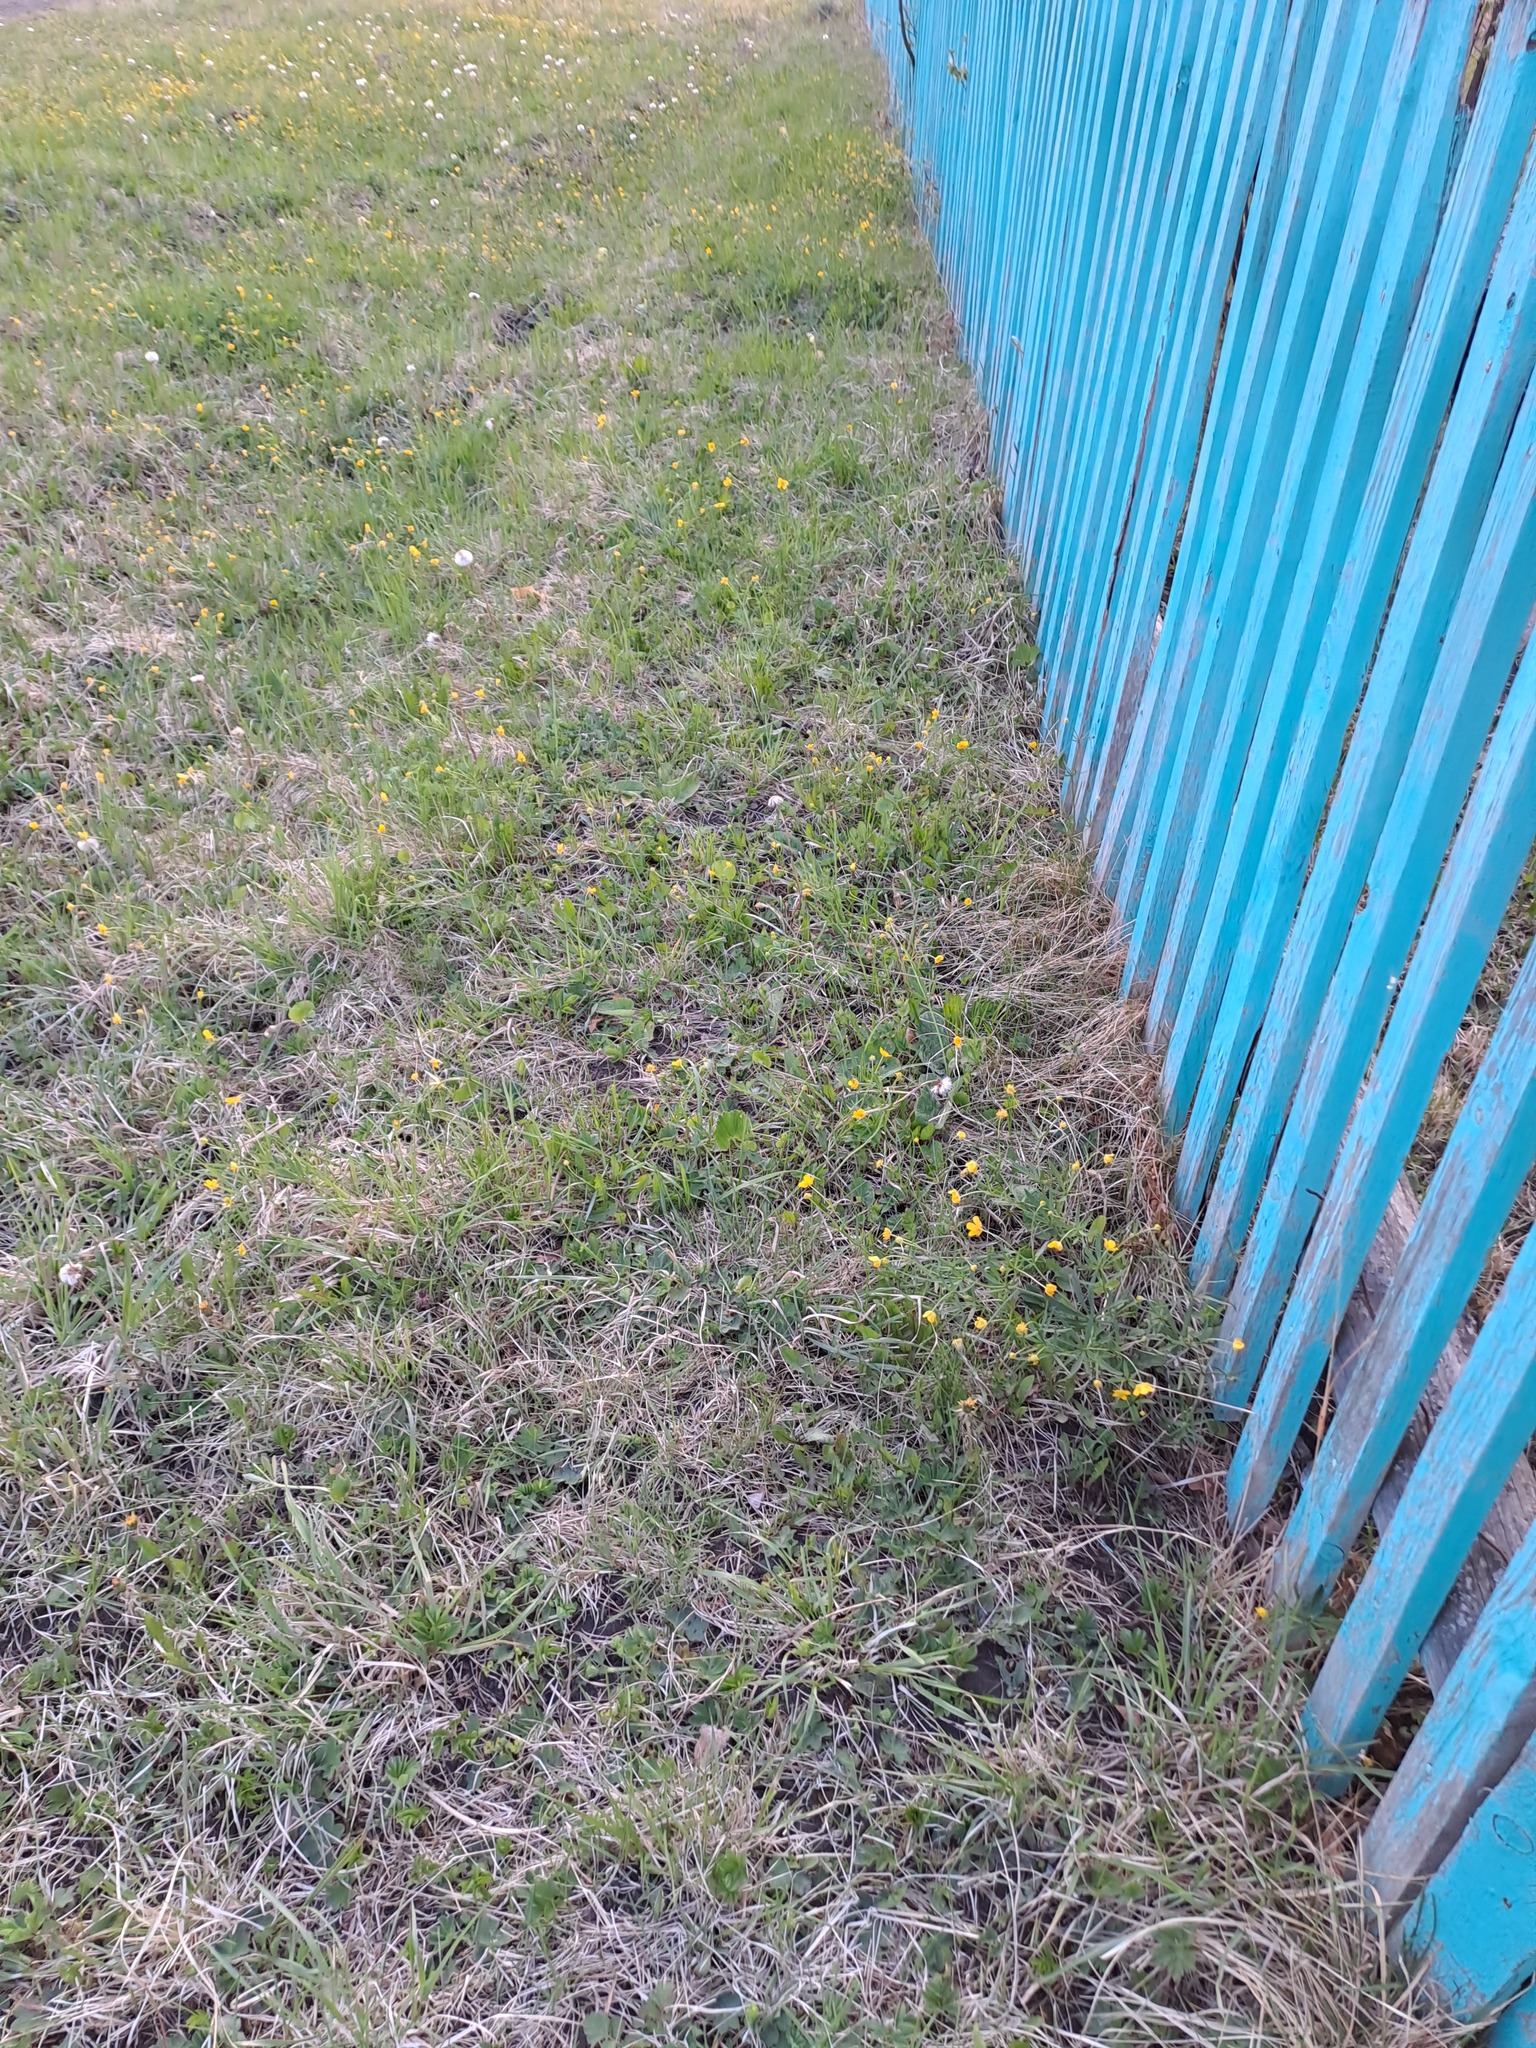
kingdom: Plantae
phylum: Tracheophyta
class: Magnoliopsida
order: Ranunculales
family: Ranunculaceae
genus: Ranunculus
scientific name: Ranunculus auricomus
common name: Goldilocks buttercup
